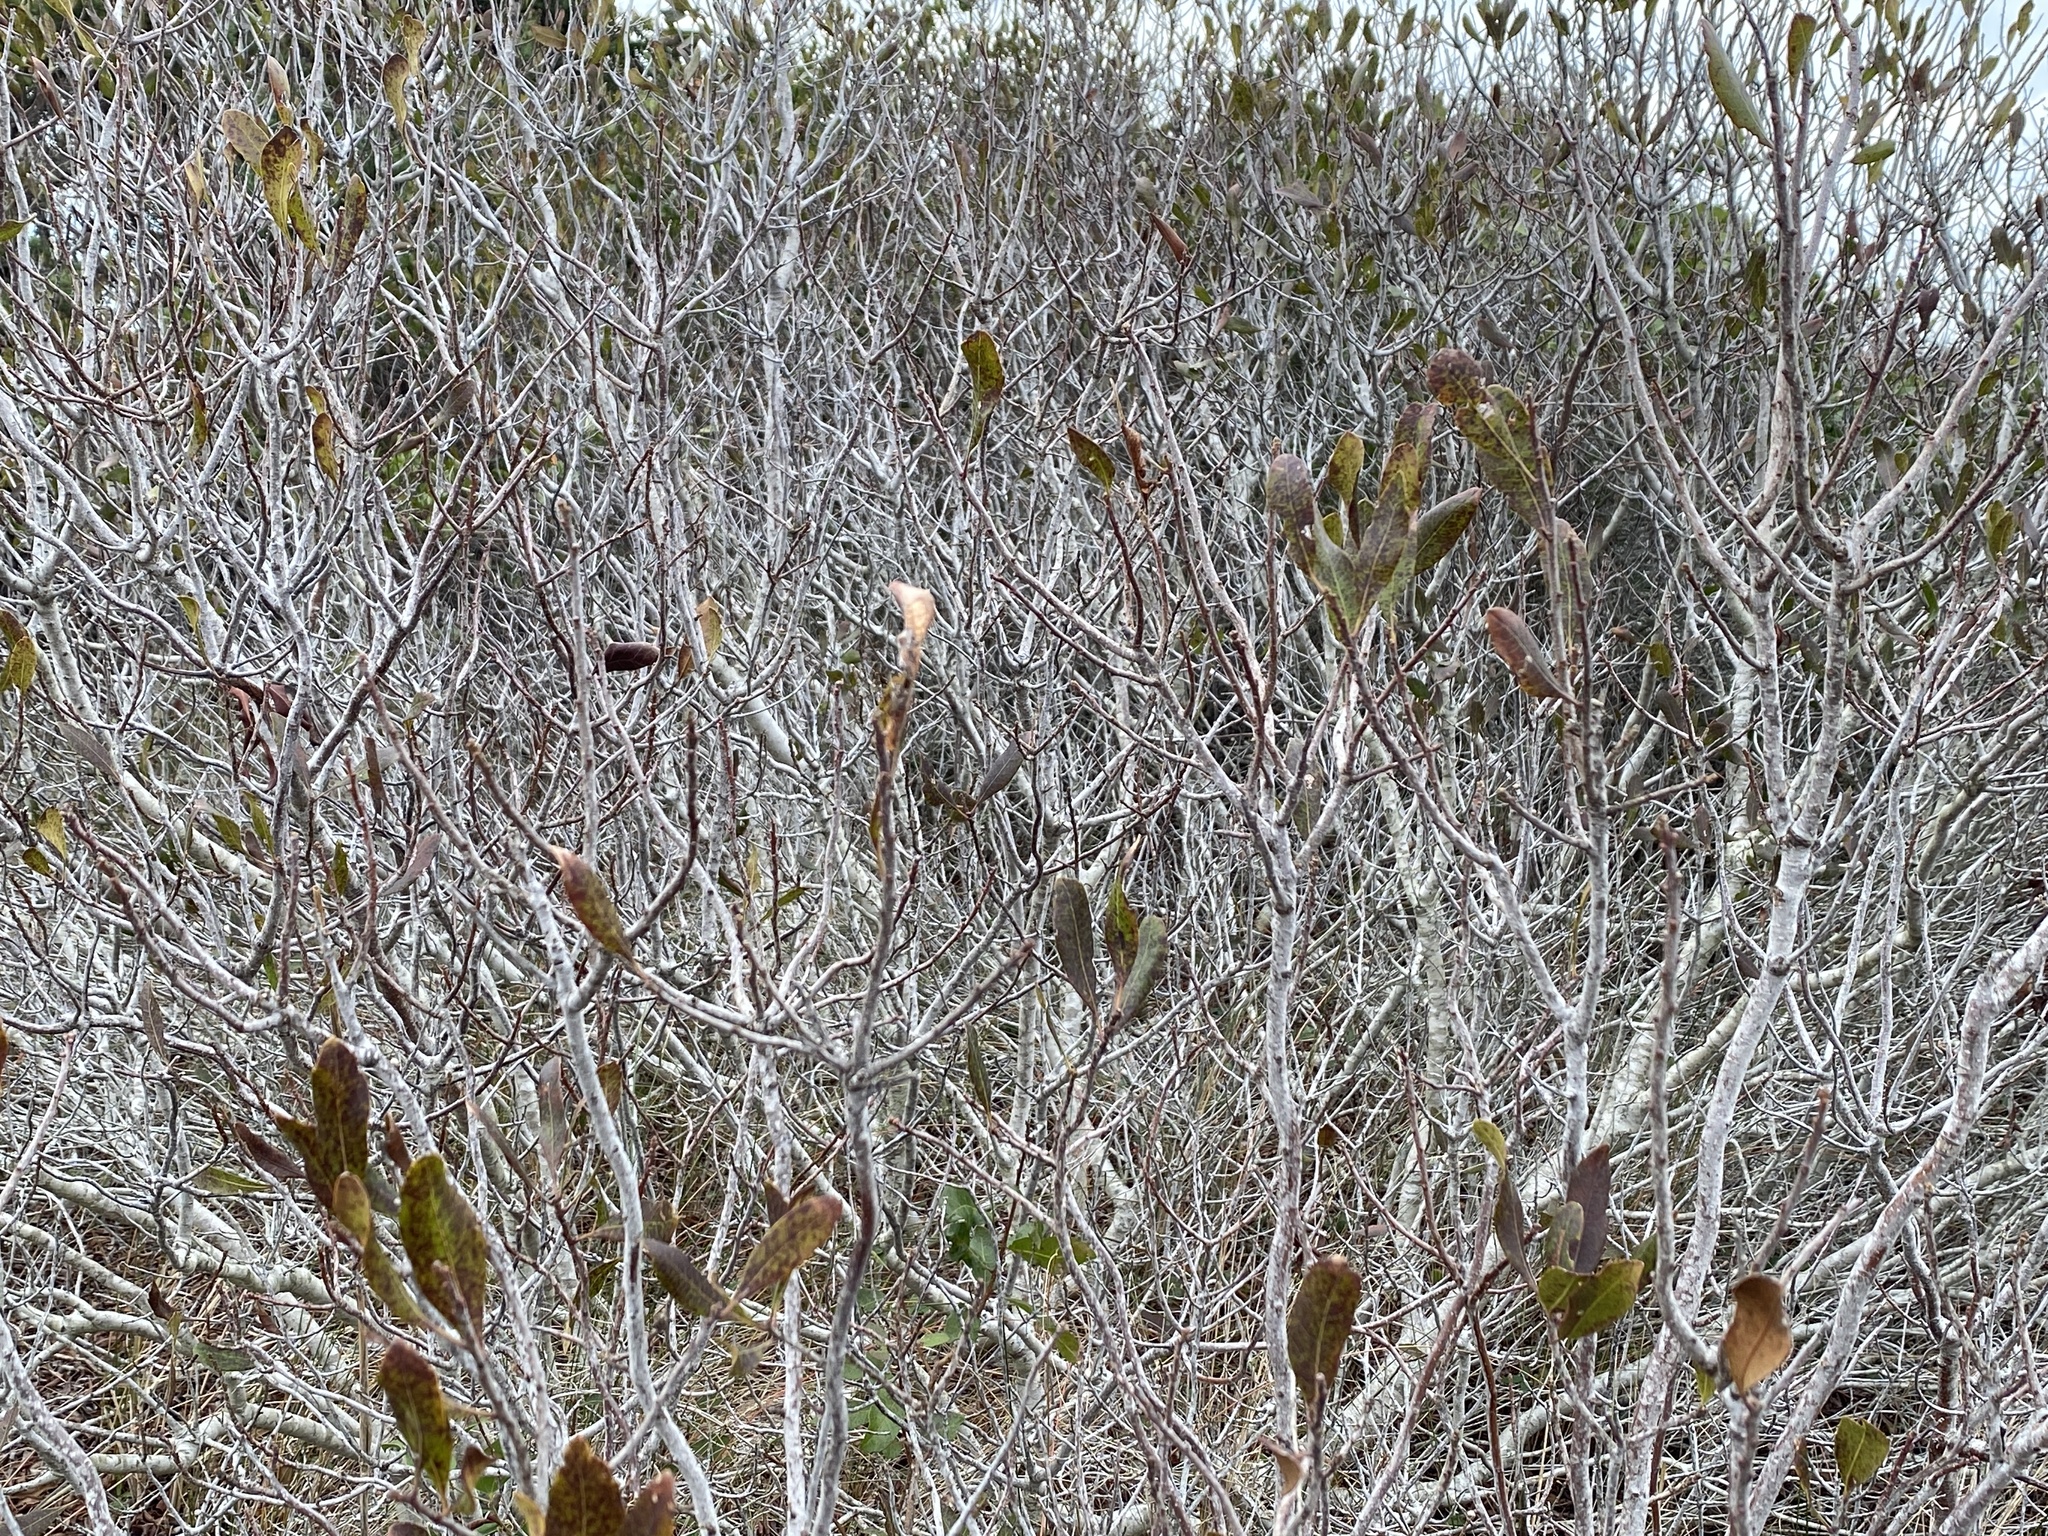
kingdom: Plantae
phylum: Tracheophyta
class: Magnoliopsida
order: Fagales
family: Myricaceae
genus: Morella
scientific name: Morella pensylvanica
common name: Northern bayberry
